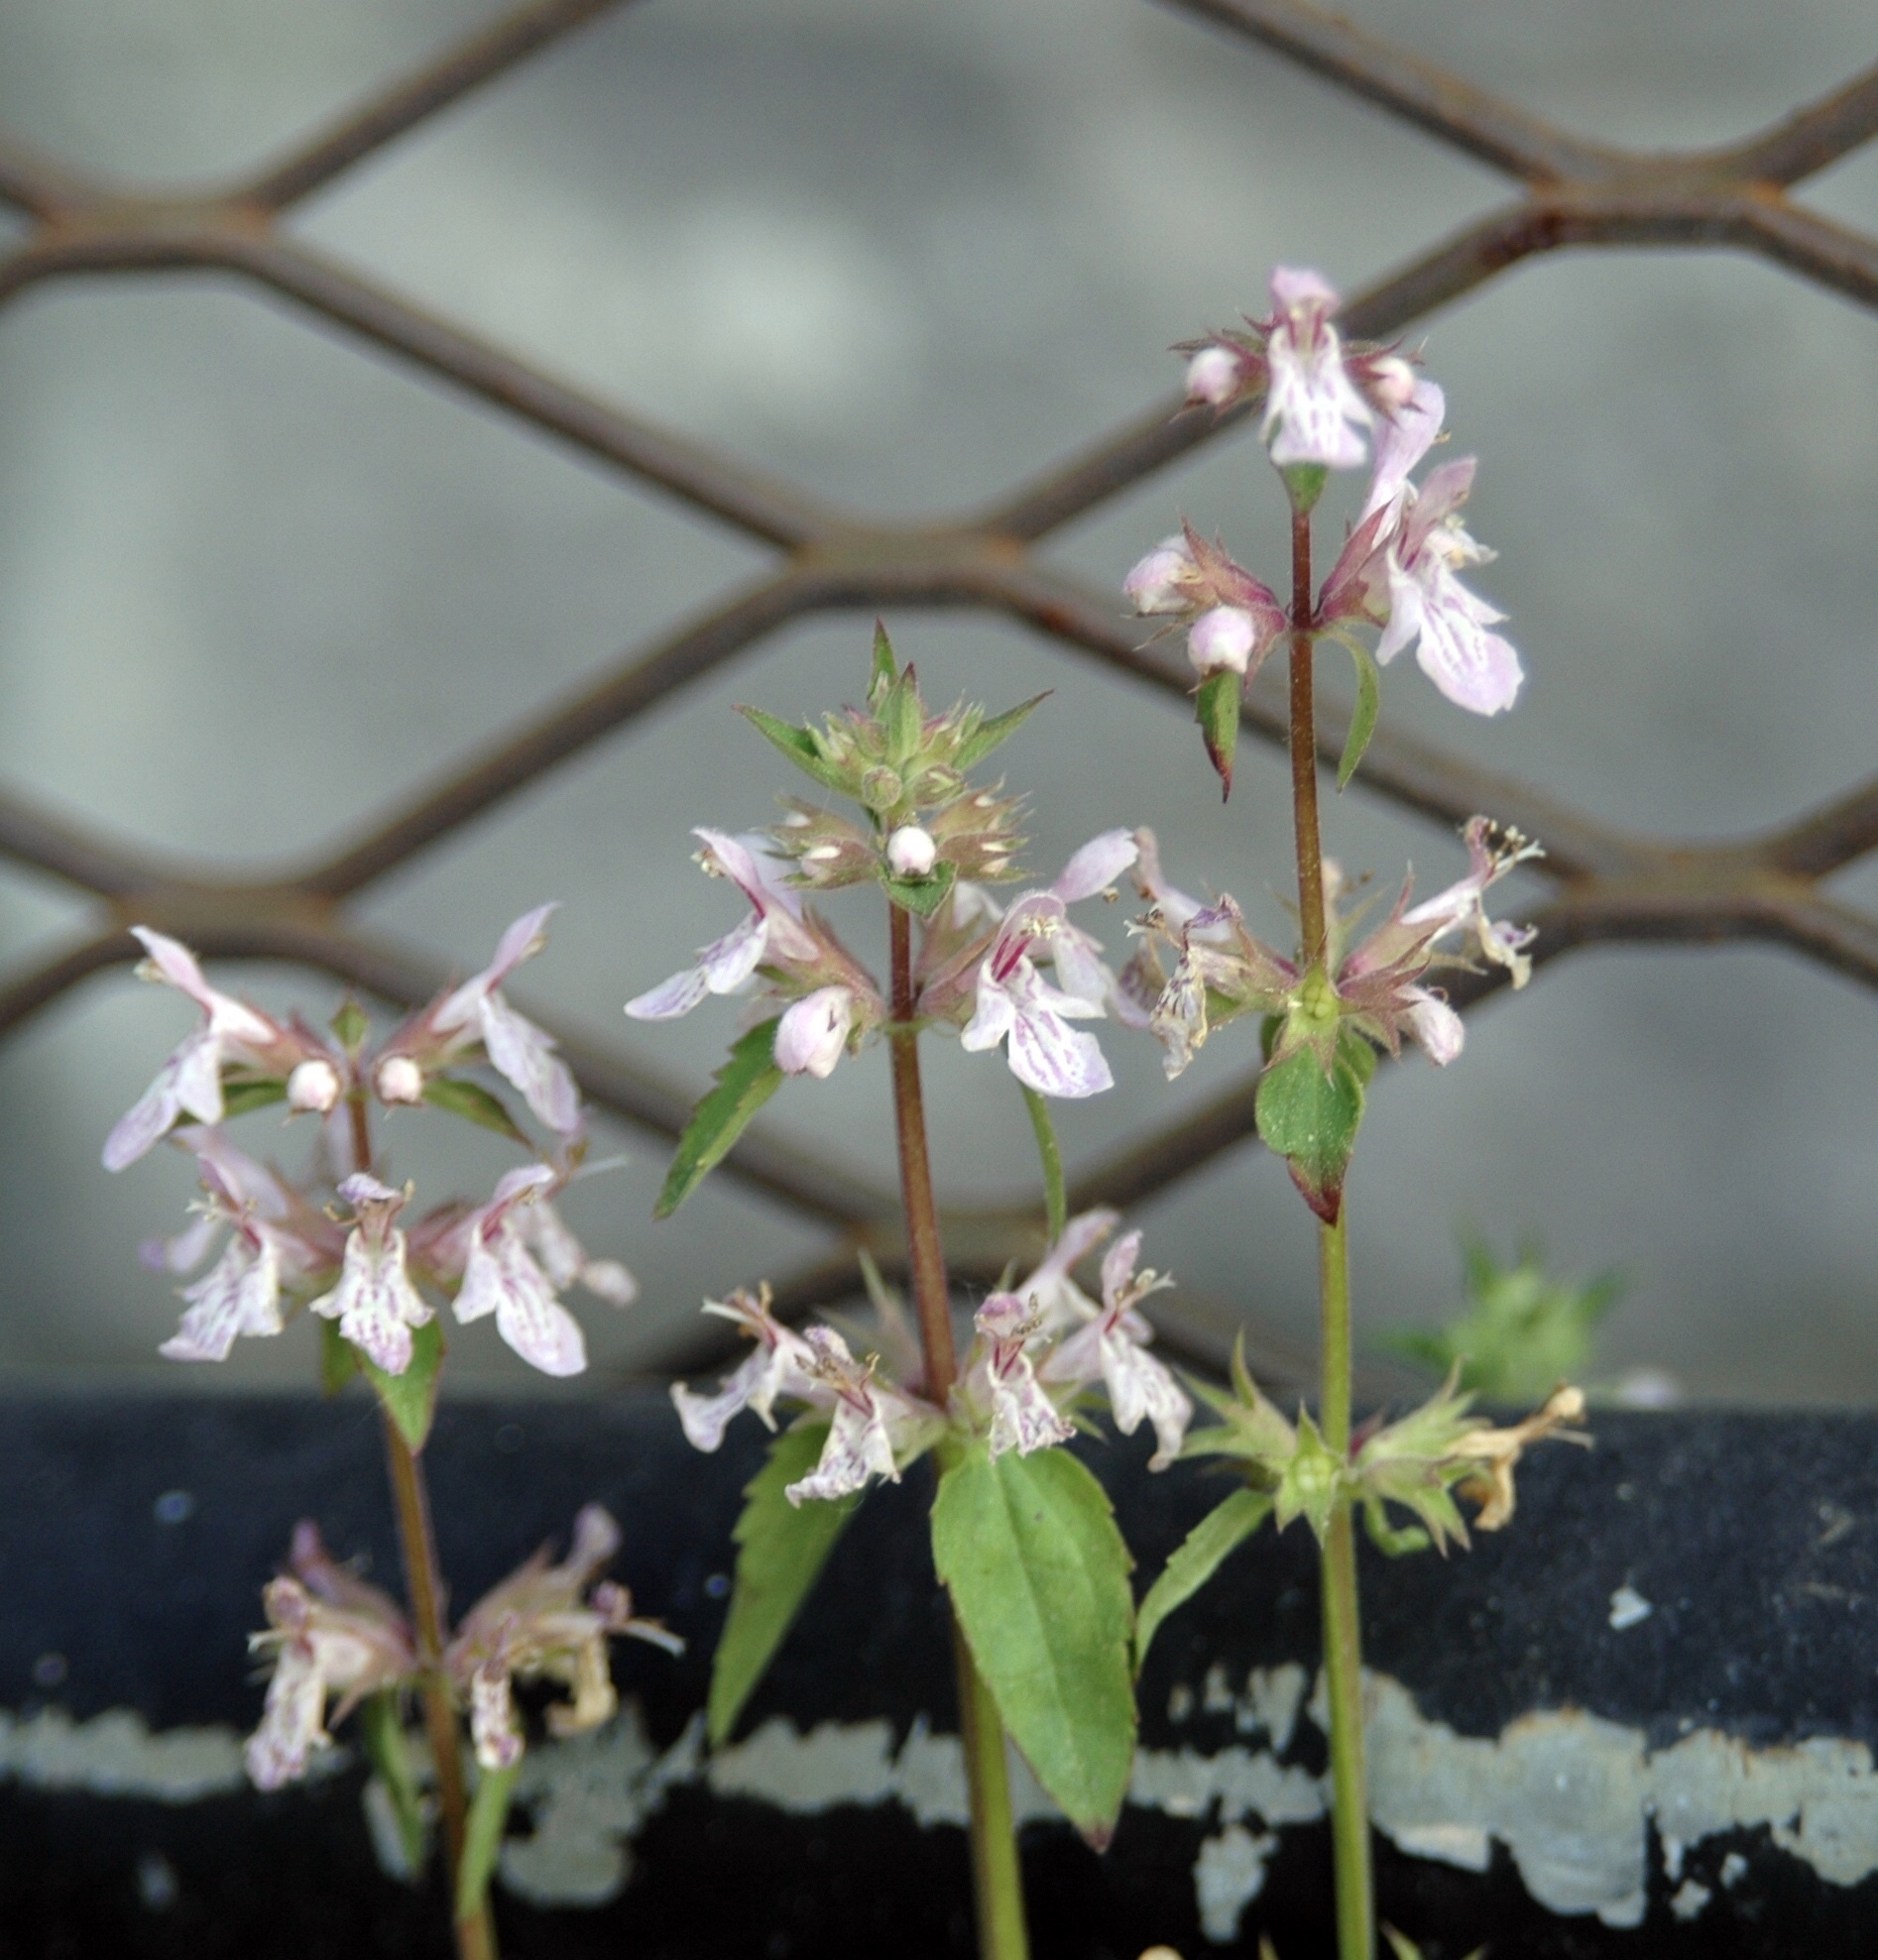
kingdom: Plantae
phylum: Tracheophyta
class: Magnoliopsida
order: Lamiales
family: Lamiaceae
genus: Stachys
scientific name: Stachys floridana
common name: Florida betony
